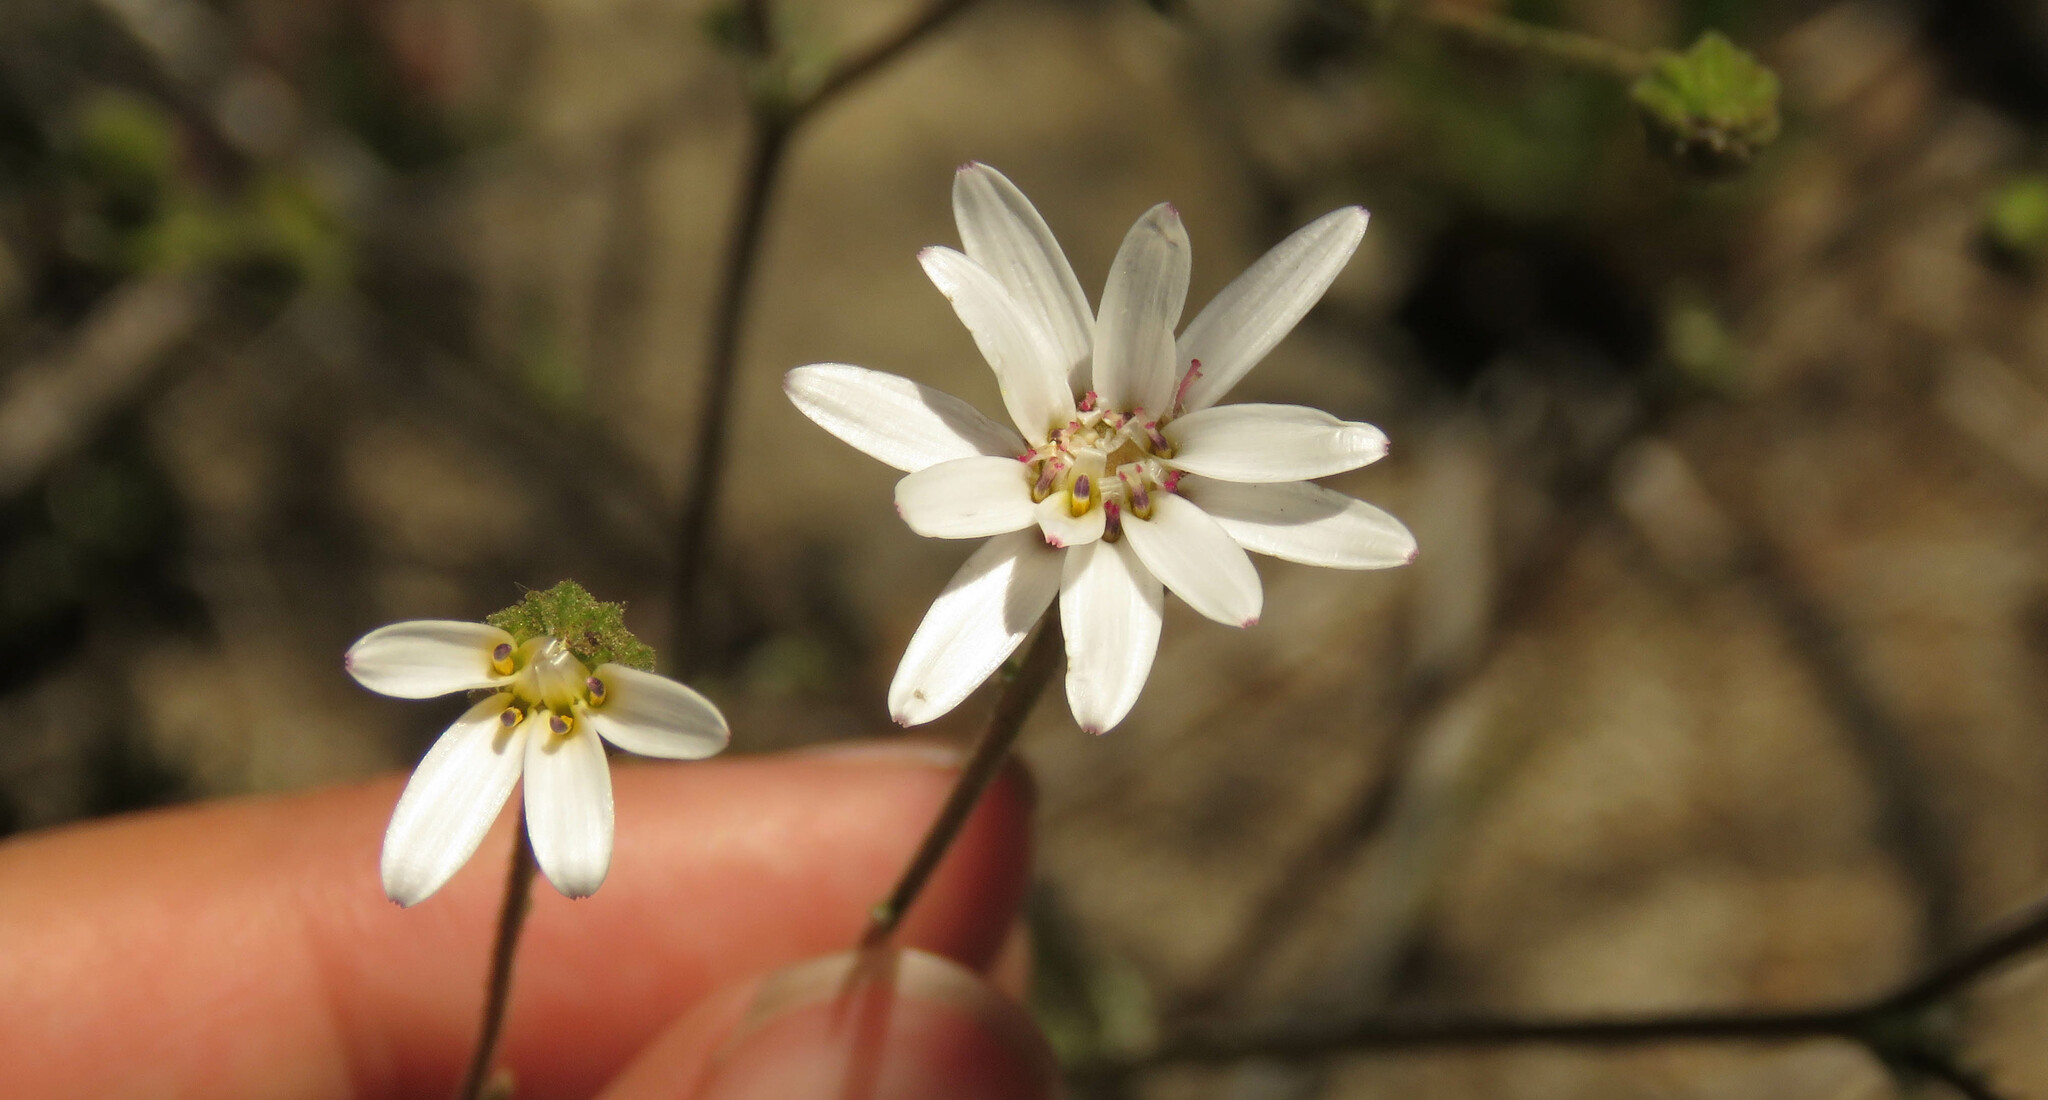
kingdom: Plantae
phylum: Tracheophyta
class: Magnoliopsida
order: Asterales
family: Asteraceae
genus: Leucheria
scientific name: Leucheria achillaeifolia
